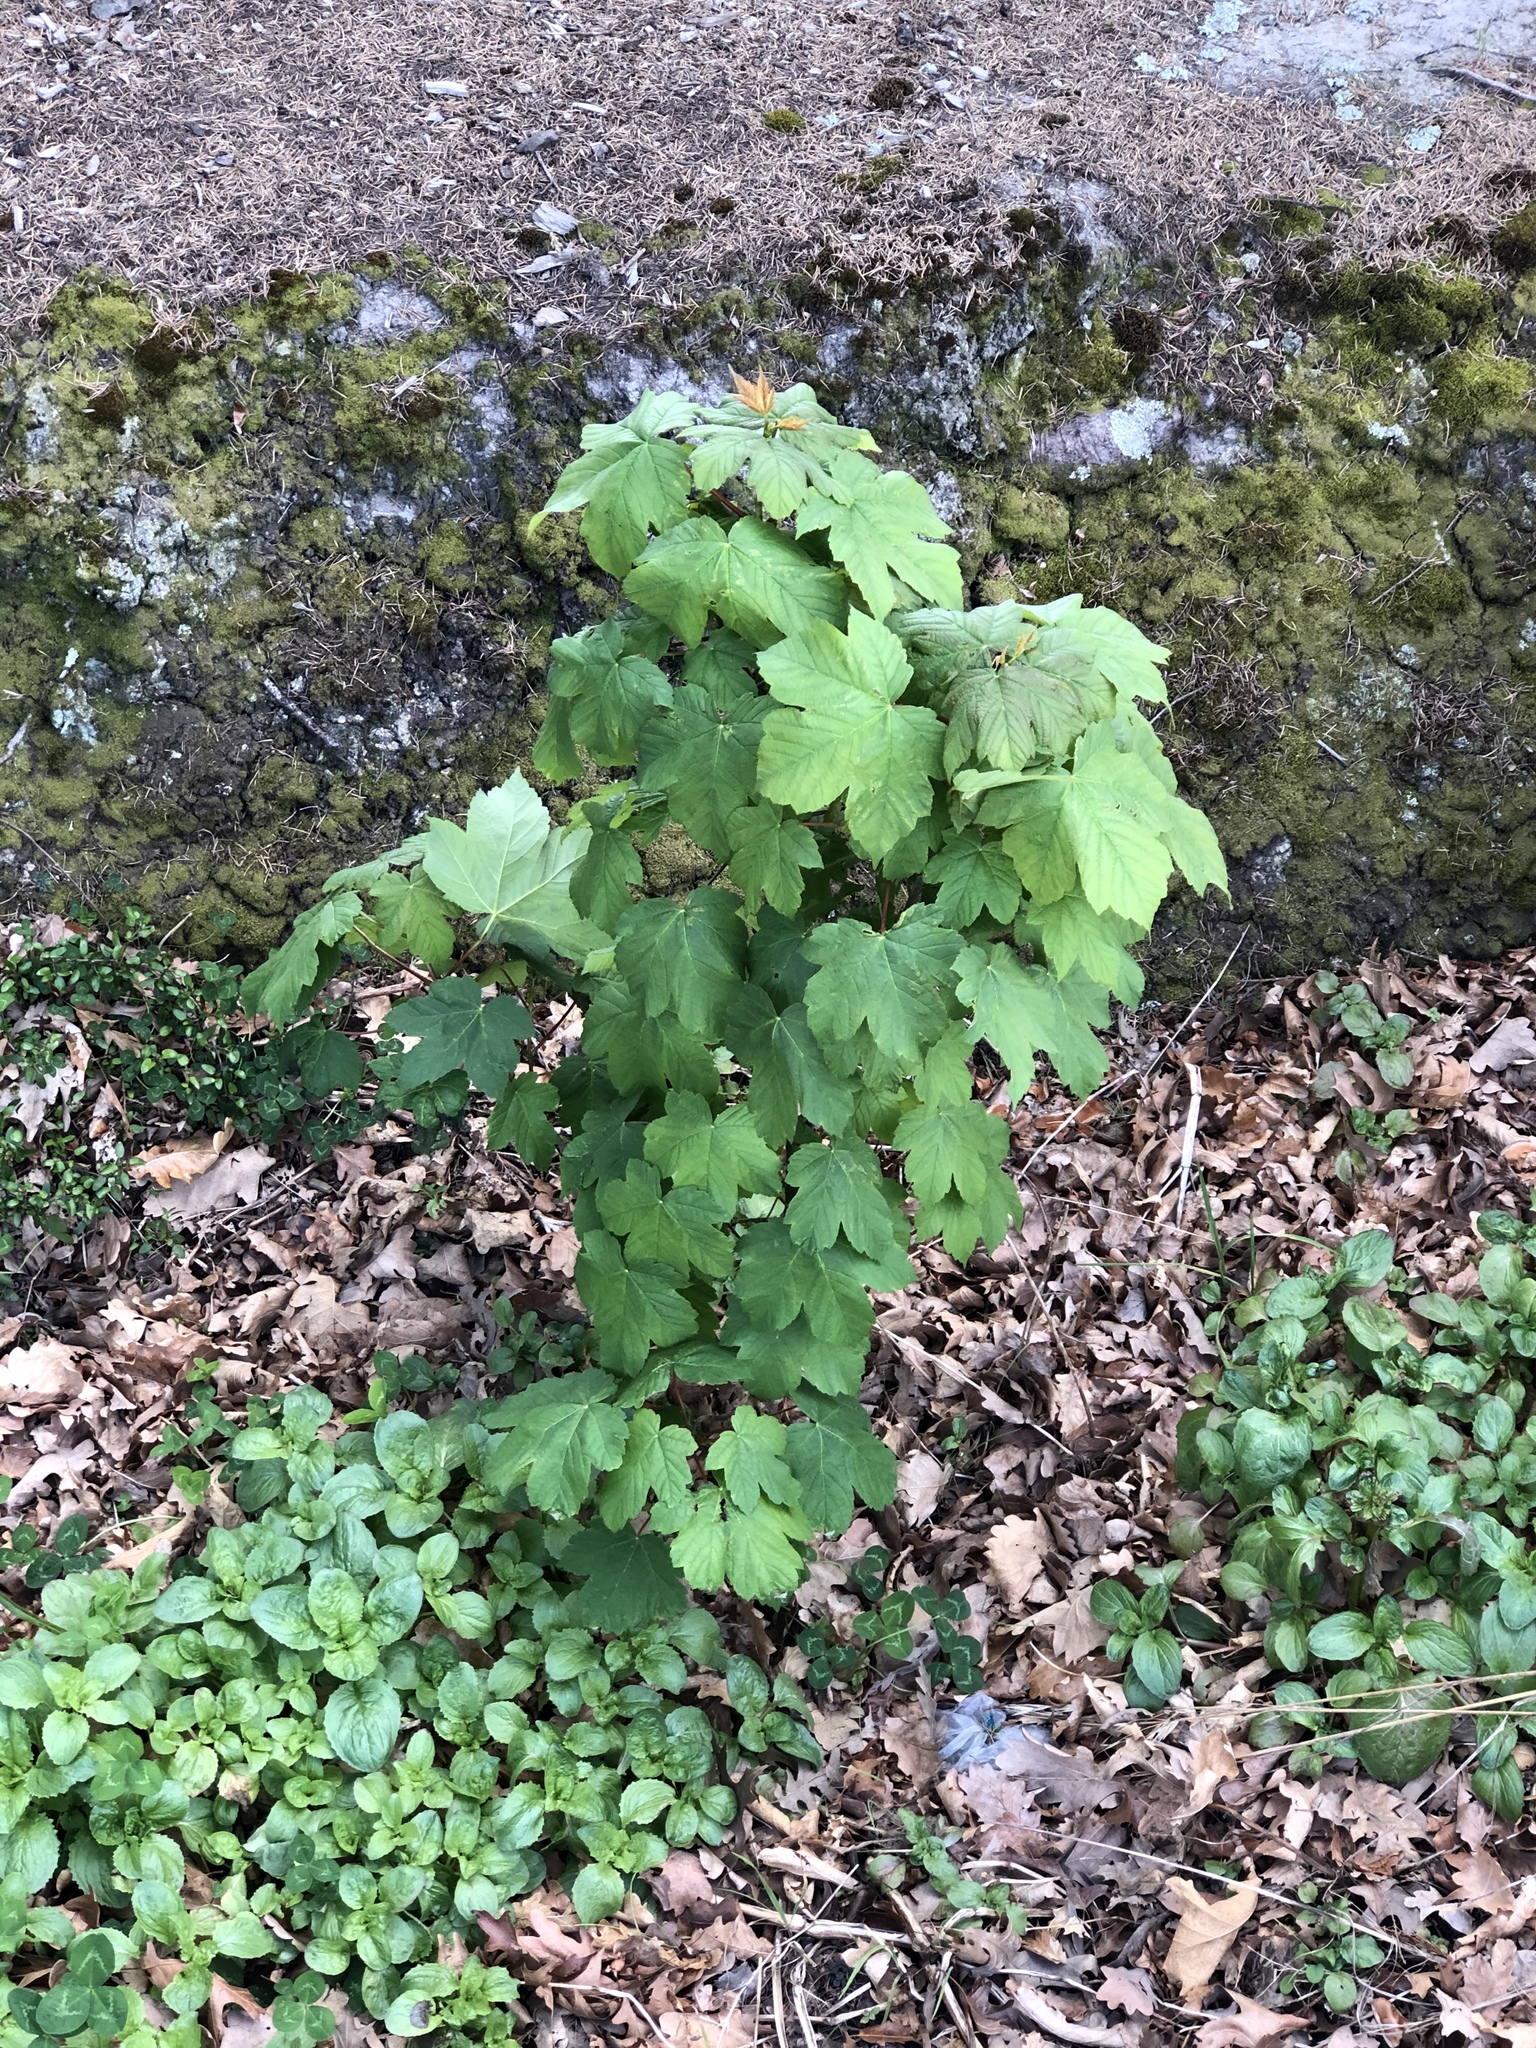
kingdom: Plantae
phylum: Tracheophyta
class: Magnoliopsida
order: Sapindales
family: Sapindaceae
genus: Acer
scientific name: Acer pseudoplatanus
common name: Sycamore
